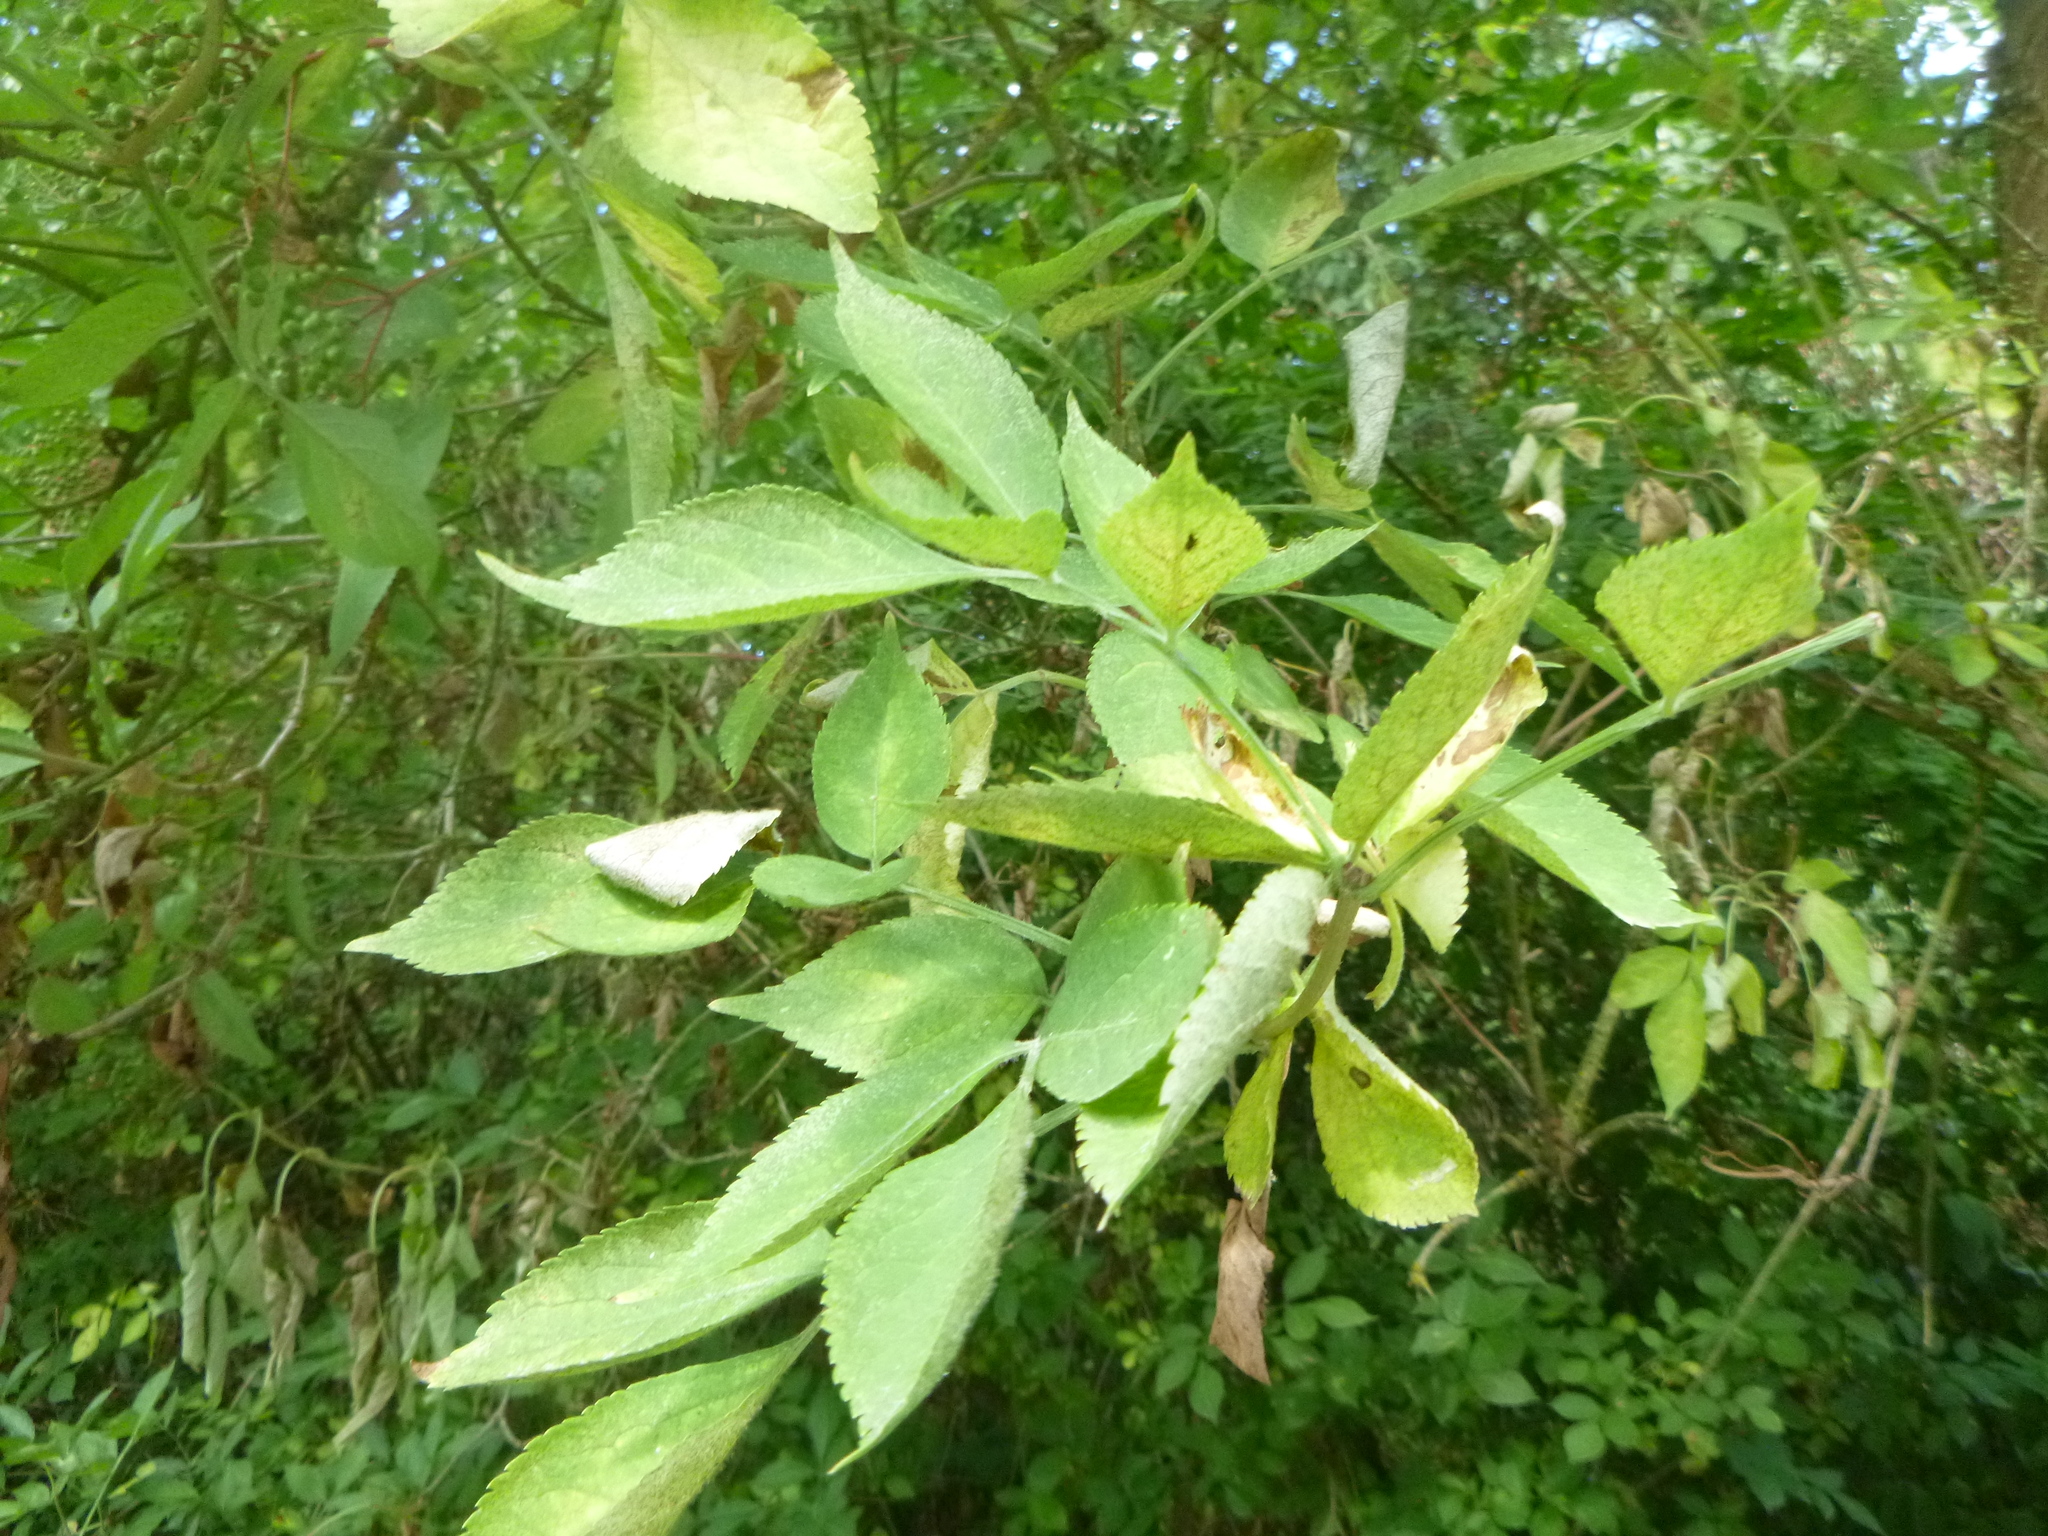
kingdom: Plantae
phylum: Tracheophyta
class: Magnoliopsida
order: Dipsacales
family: Viburnaceae
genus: Sambucus
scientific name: Sambucus nigra
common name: Elder
